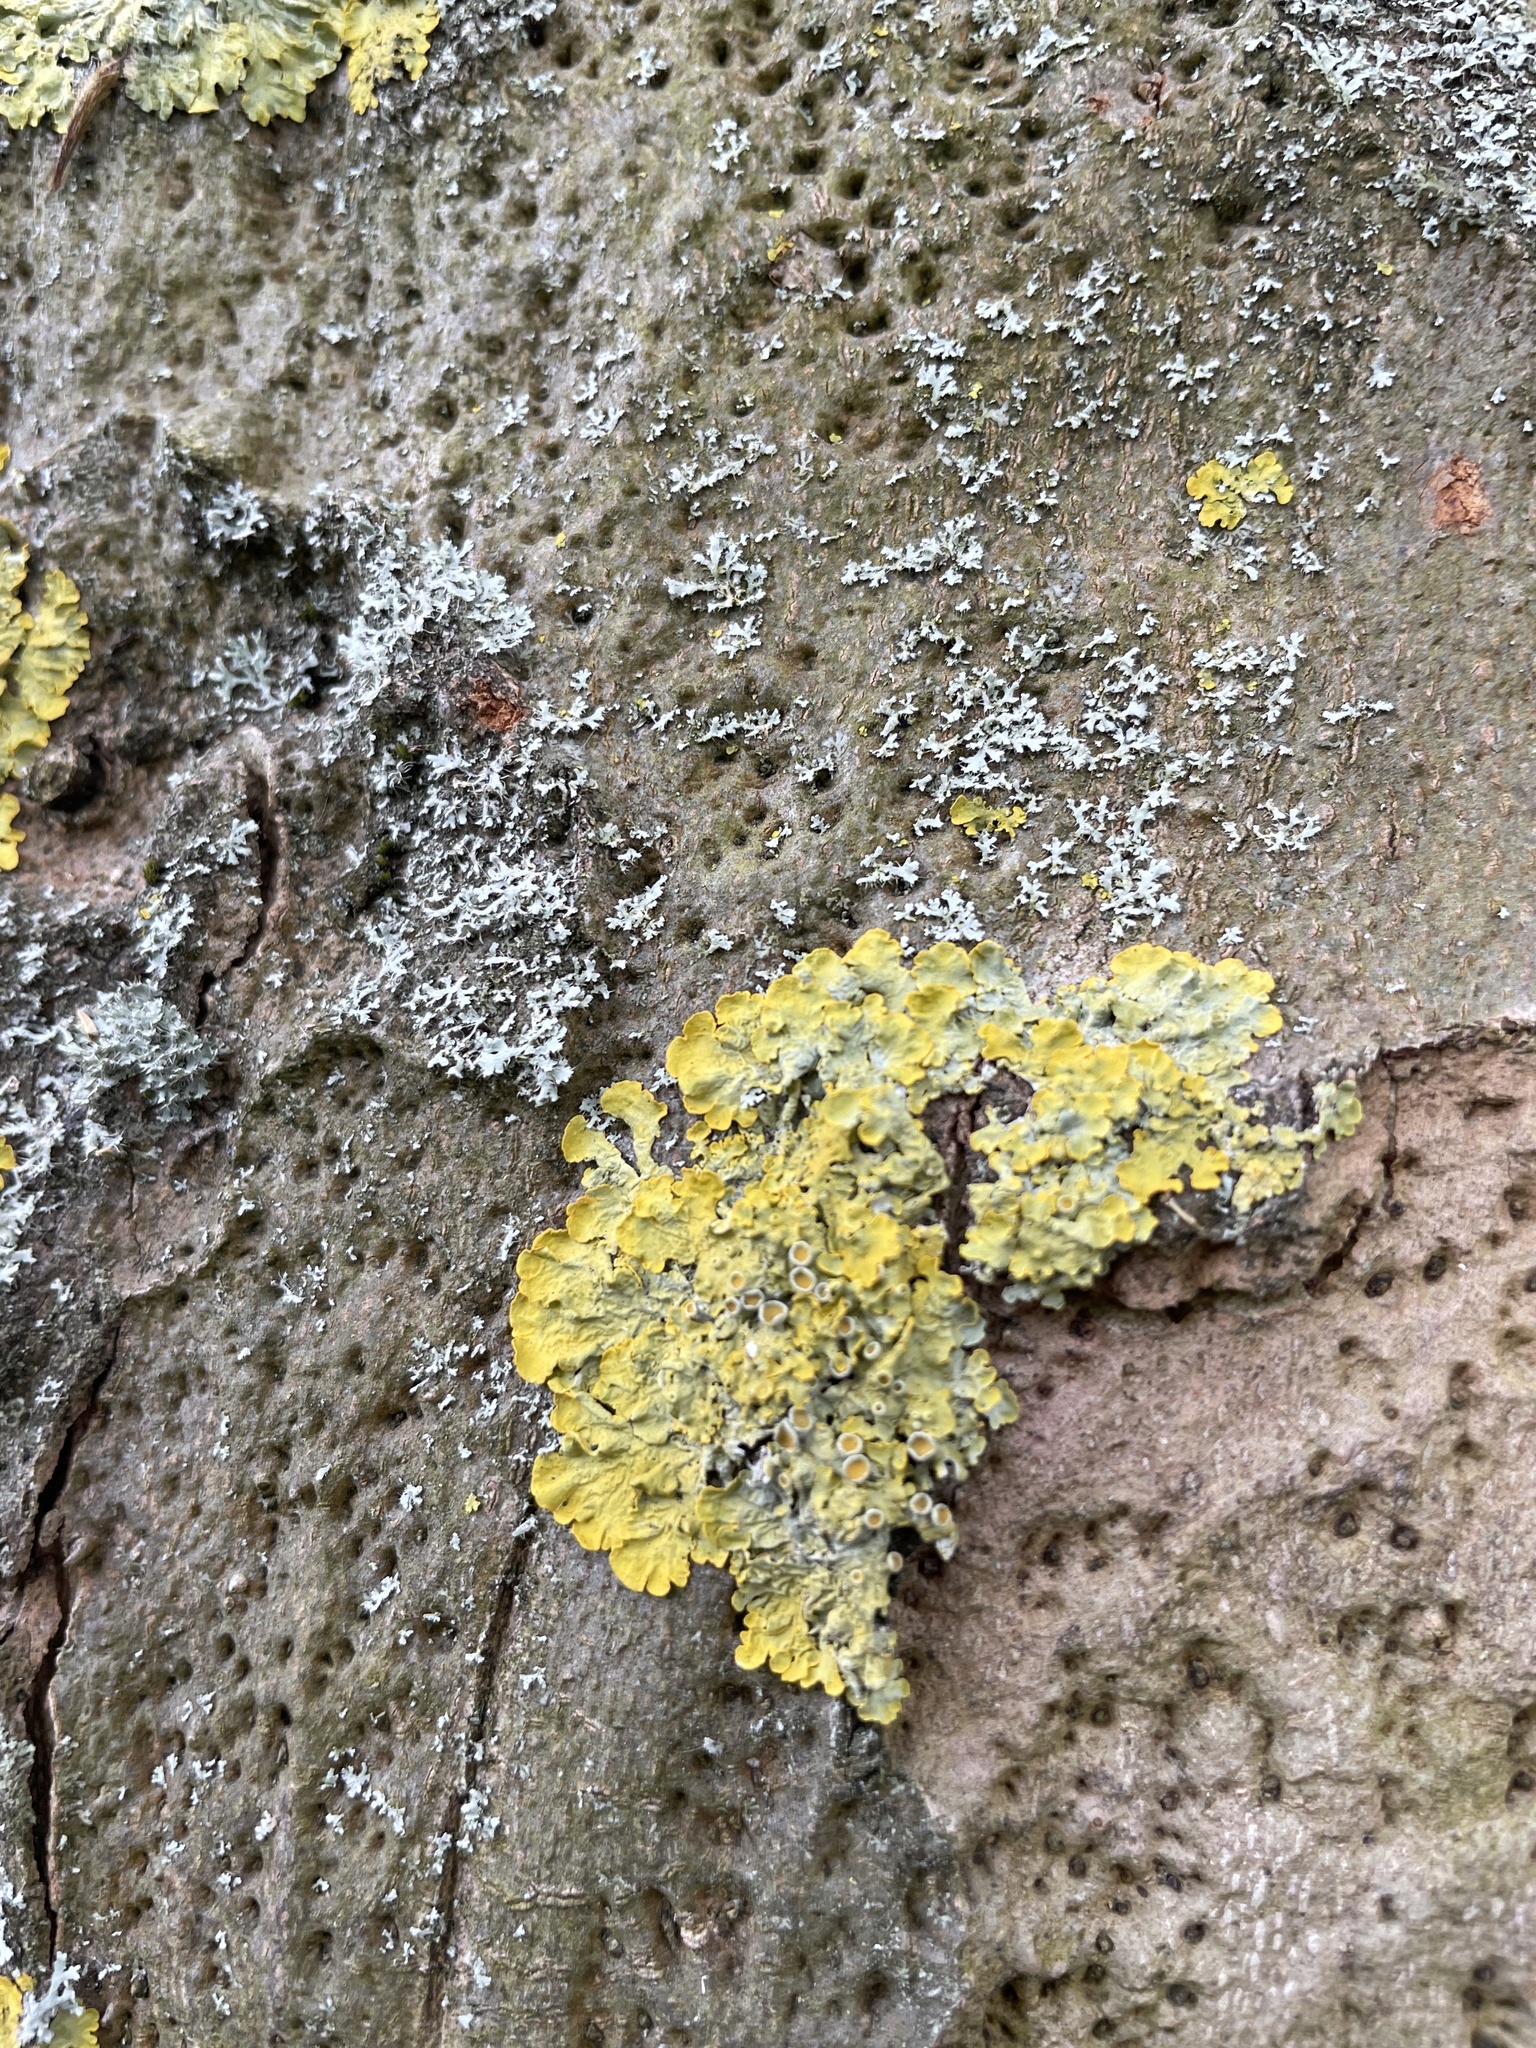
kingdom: Fungi
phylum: Ascomycota
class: Lecanoromycetes
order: Teloschistales
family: Teloschistaceae
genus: Xanthoria
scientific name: Xanthoria parietina
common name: Common orange lichen
